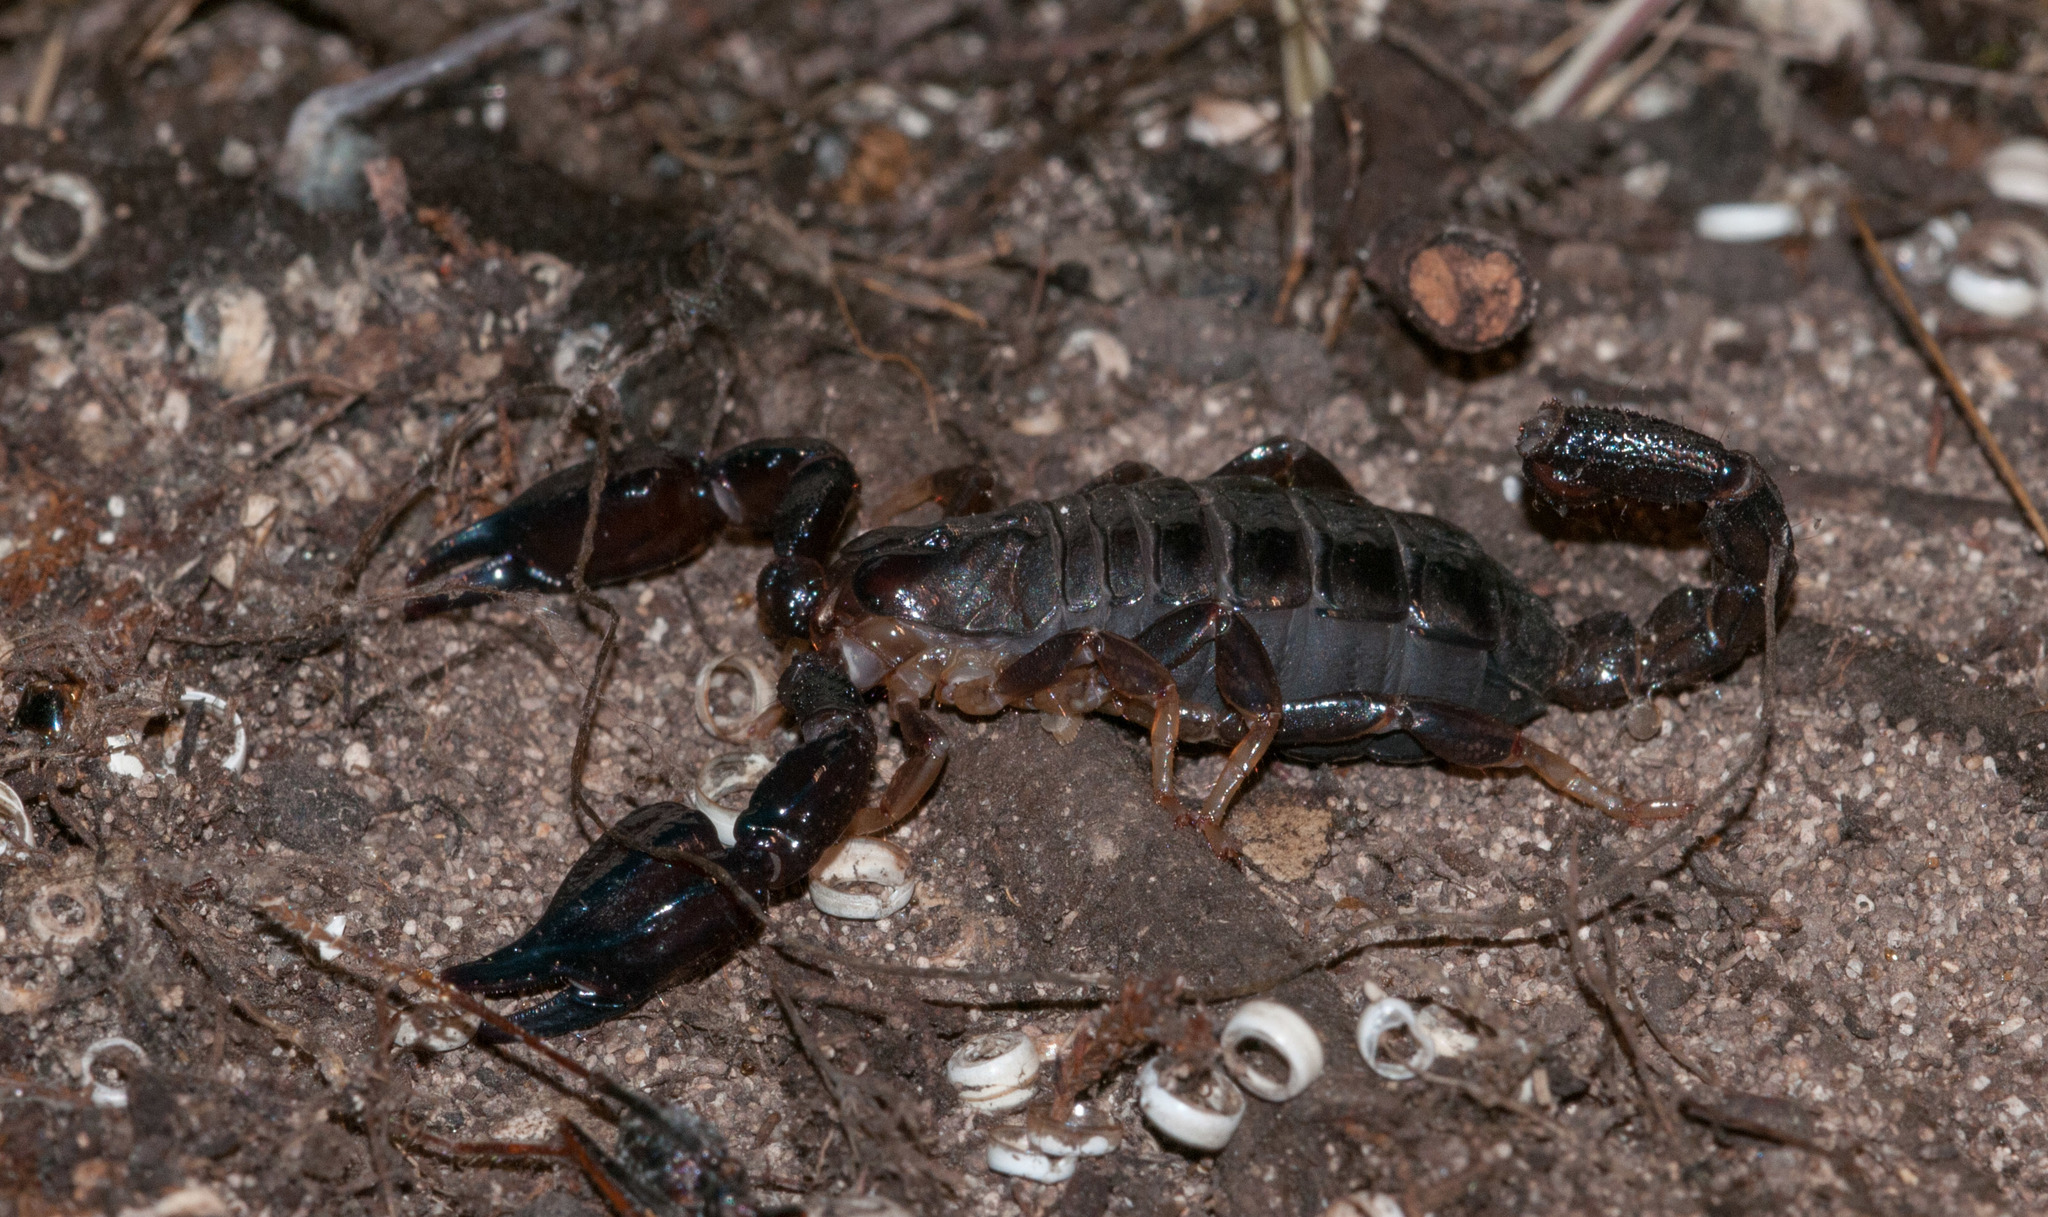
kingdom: Animalia
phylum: Arthropoda
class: Arachnida
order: Scorpiones
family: Scorpionidae
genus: Urodacus
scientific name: Urodacus manicatus
